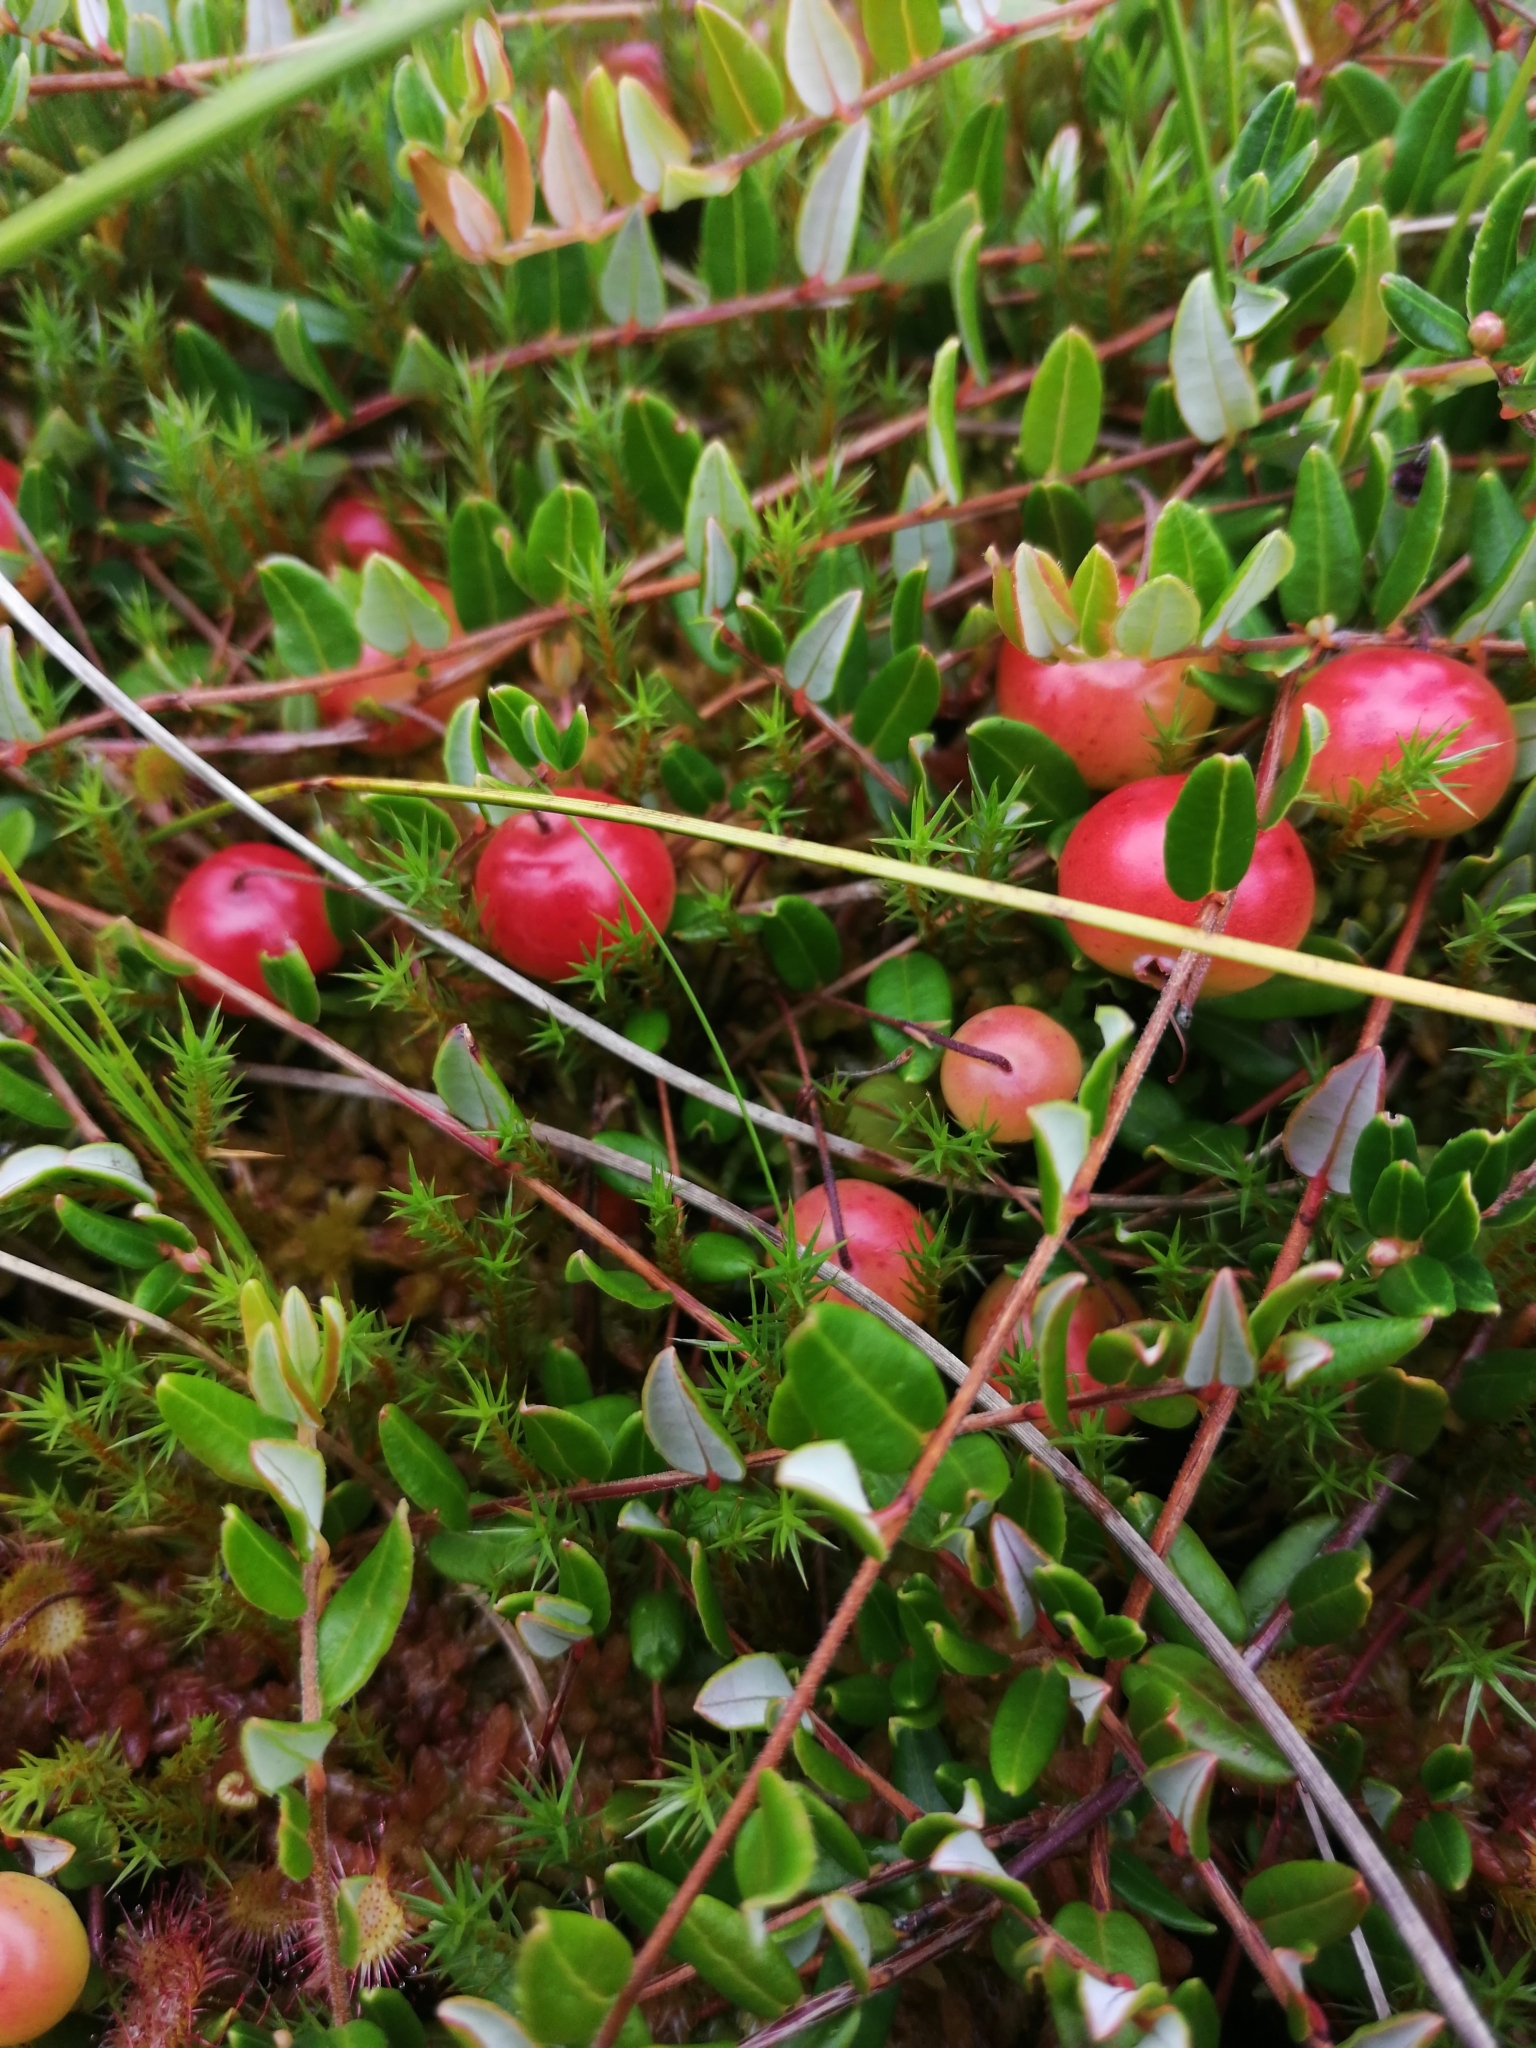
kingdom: Plantae
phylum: Tracheophyta
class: Magnoliopsida
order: Ericales
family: Ericaceae
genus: Vaccinium
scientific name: Vaccinium oxycoccos
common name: Cranberry
